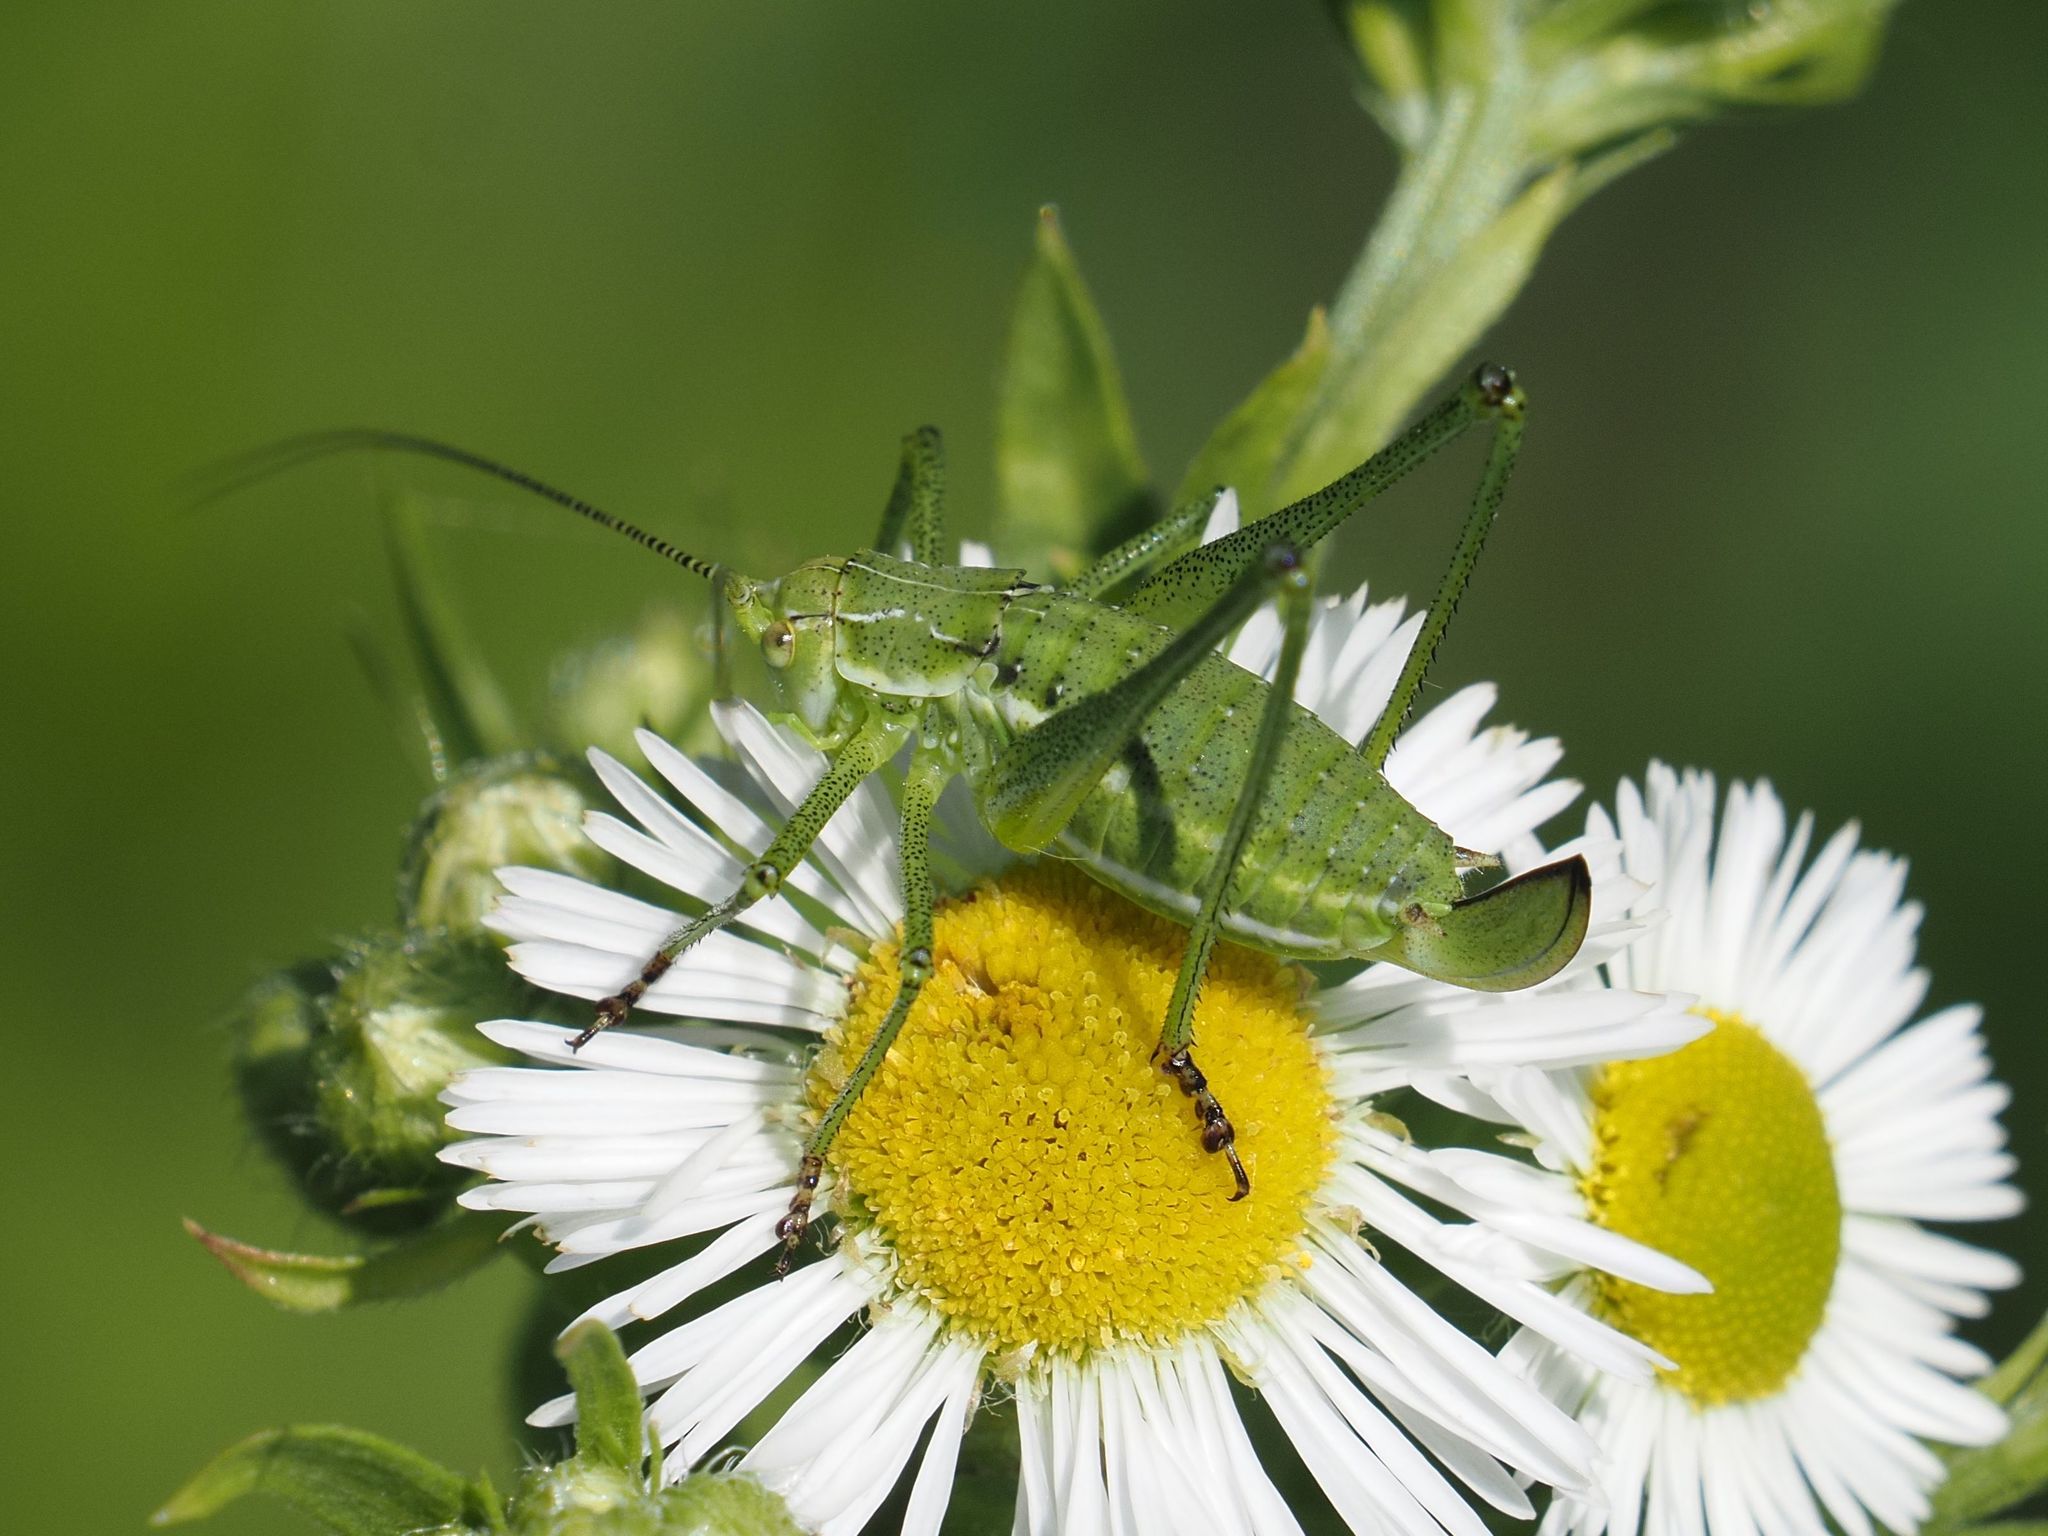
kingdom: Animalia
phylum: Arthropoda
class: Insecta
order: Orthoptera
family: Tettigoniidae
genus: Leptophyes
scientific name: Leptophyes albovittata
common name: Striped bush-cricket
